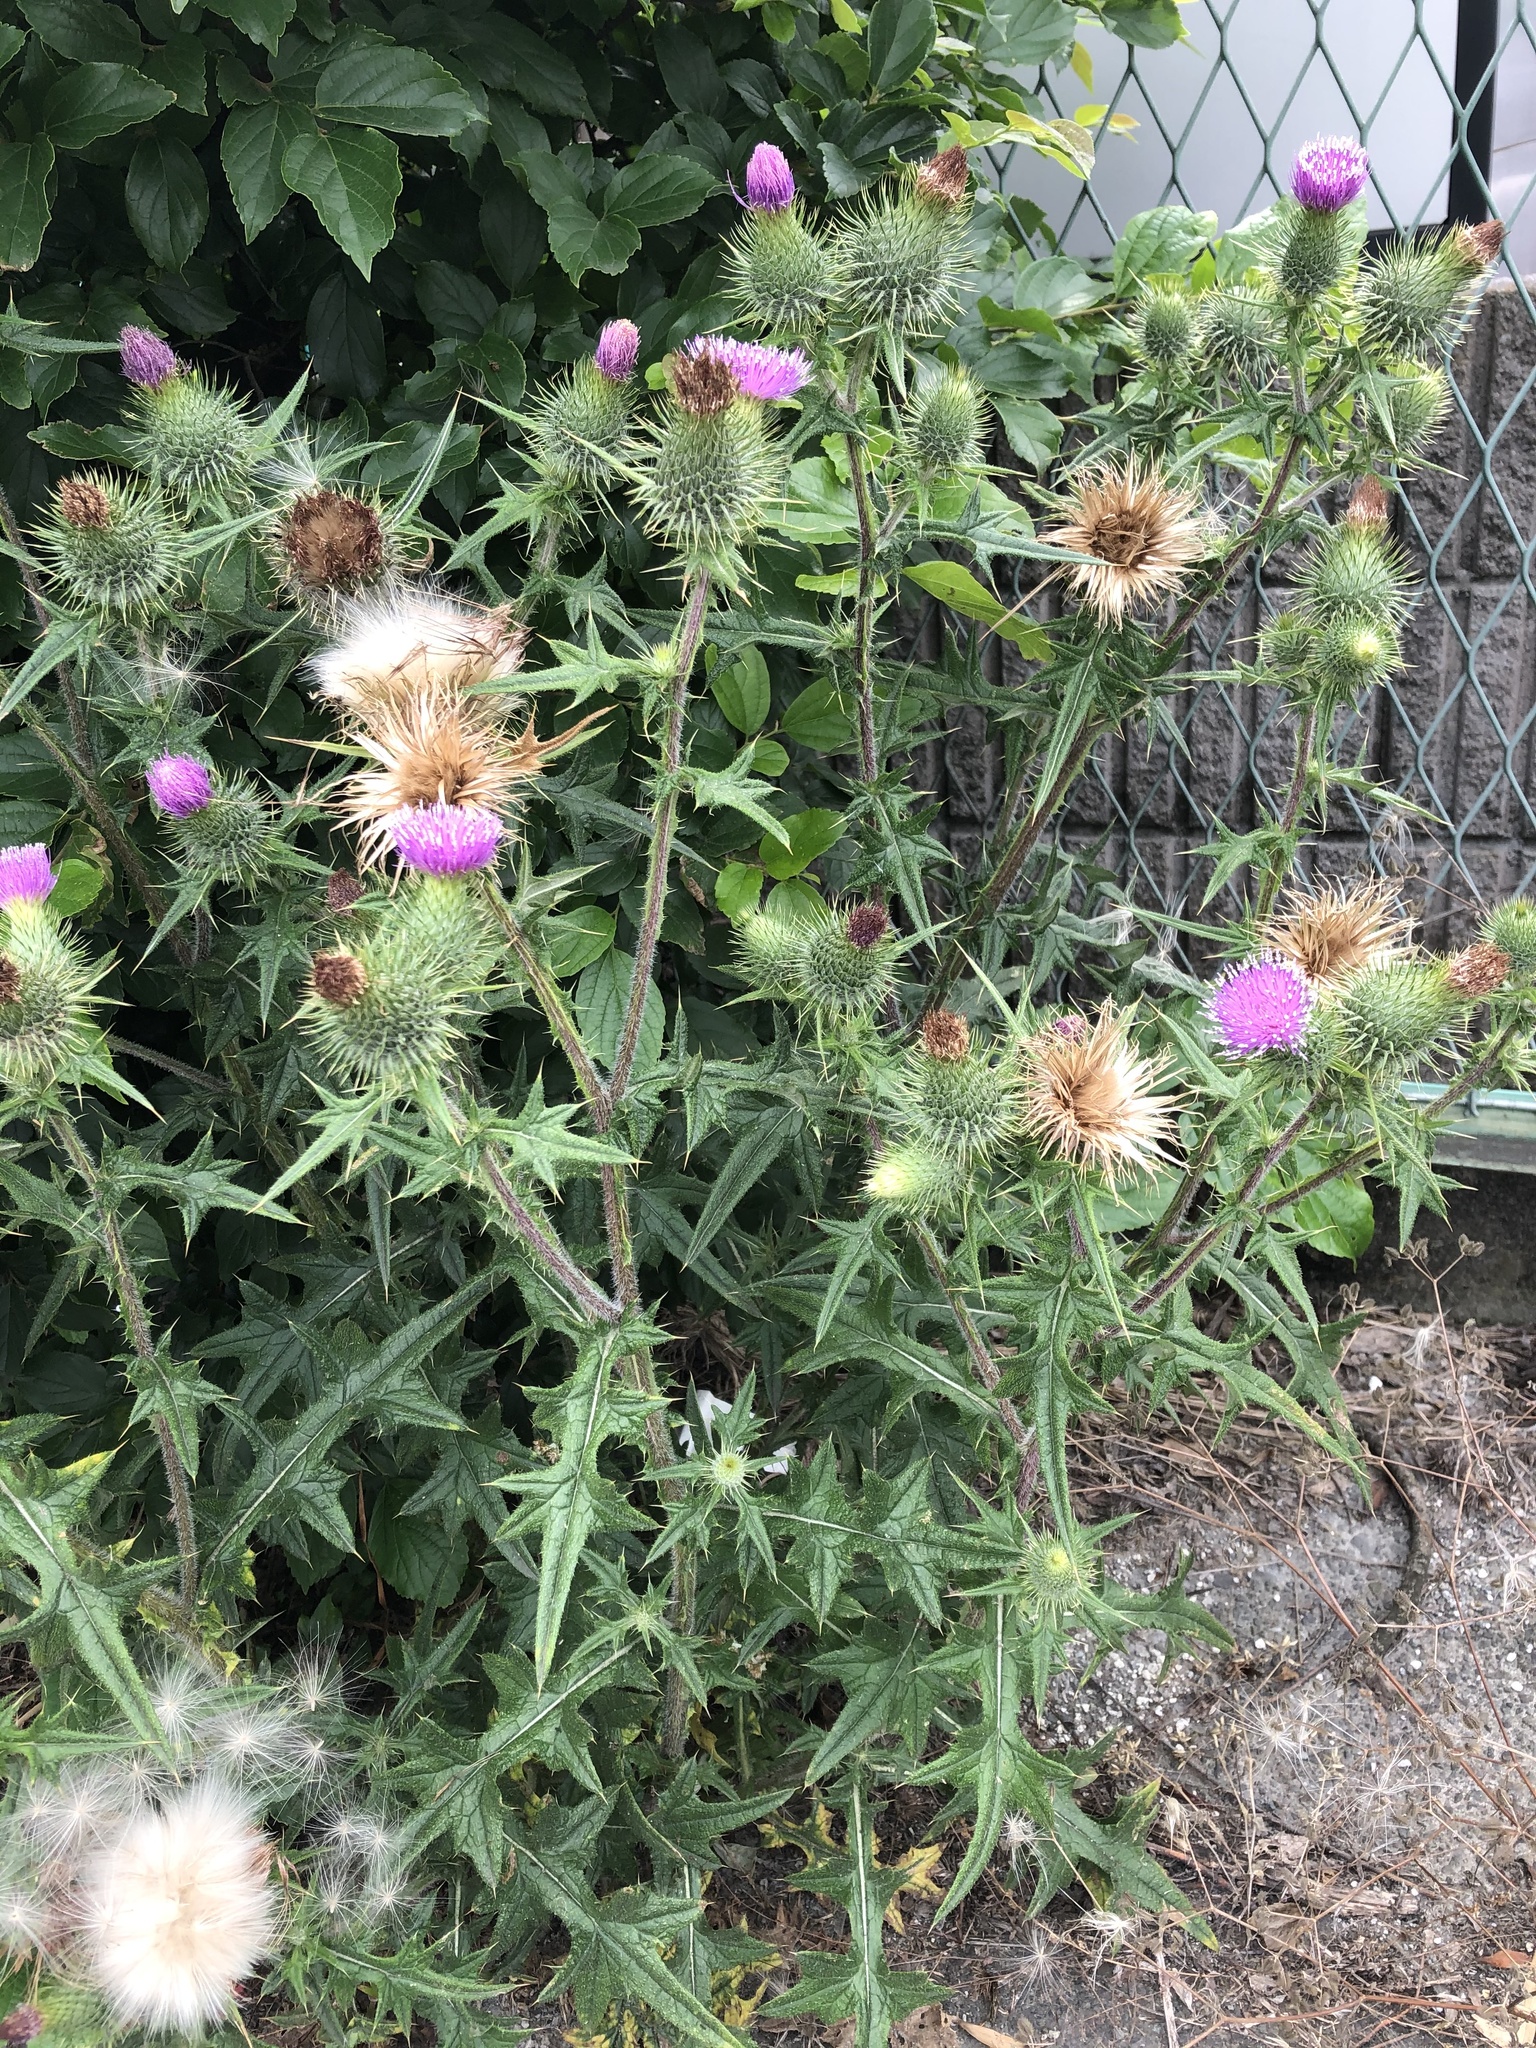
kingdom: Plantae
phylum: Tracheophyta
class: Magnoliopsida
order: Asterales
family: Asteraceae
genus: Cirsium
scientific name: Cirsium vulgare
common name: Bull thistle
